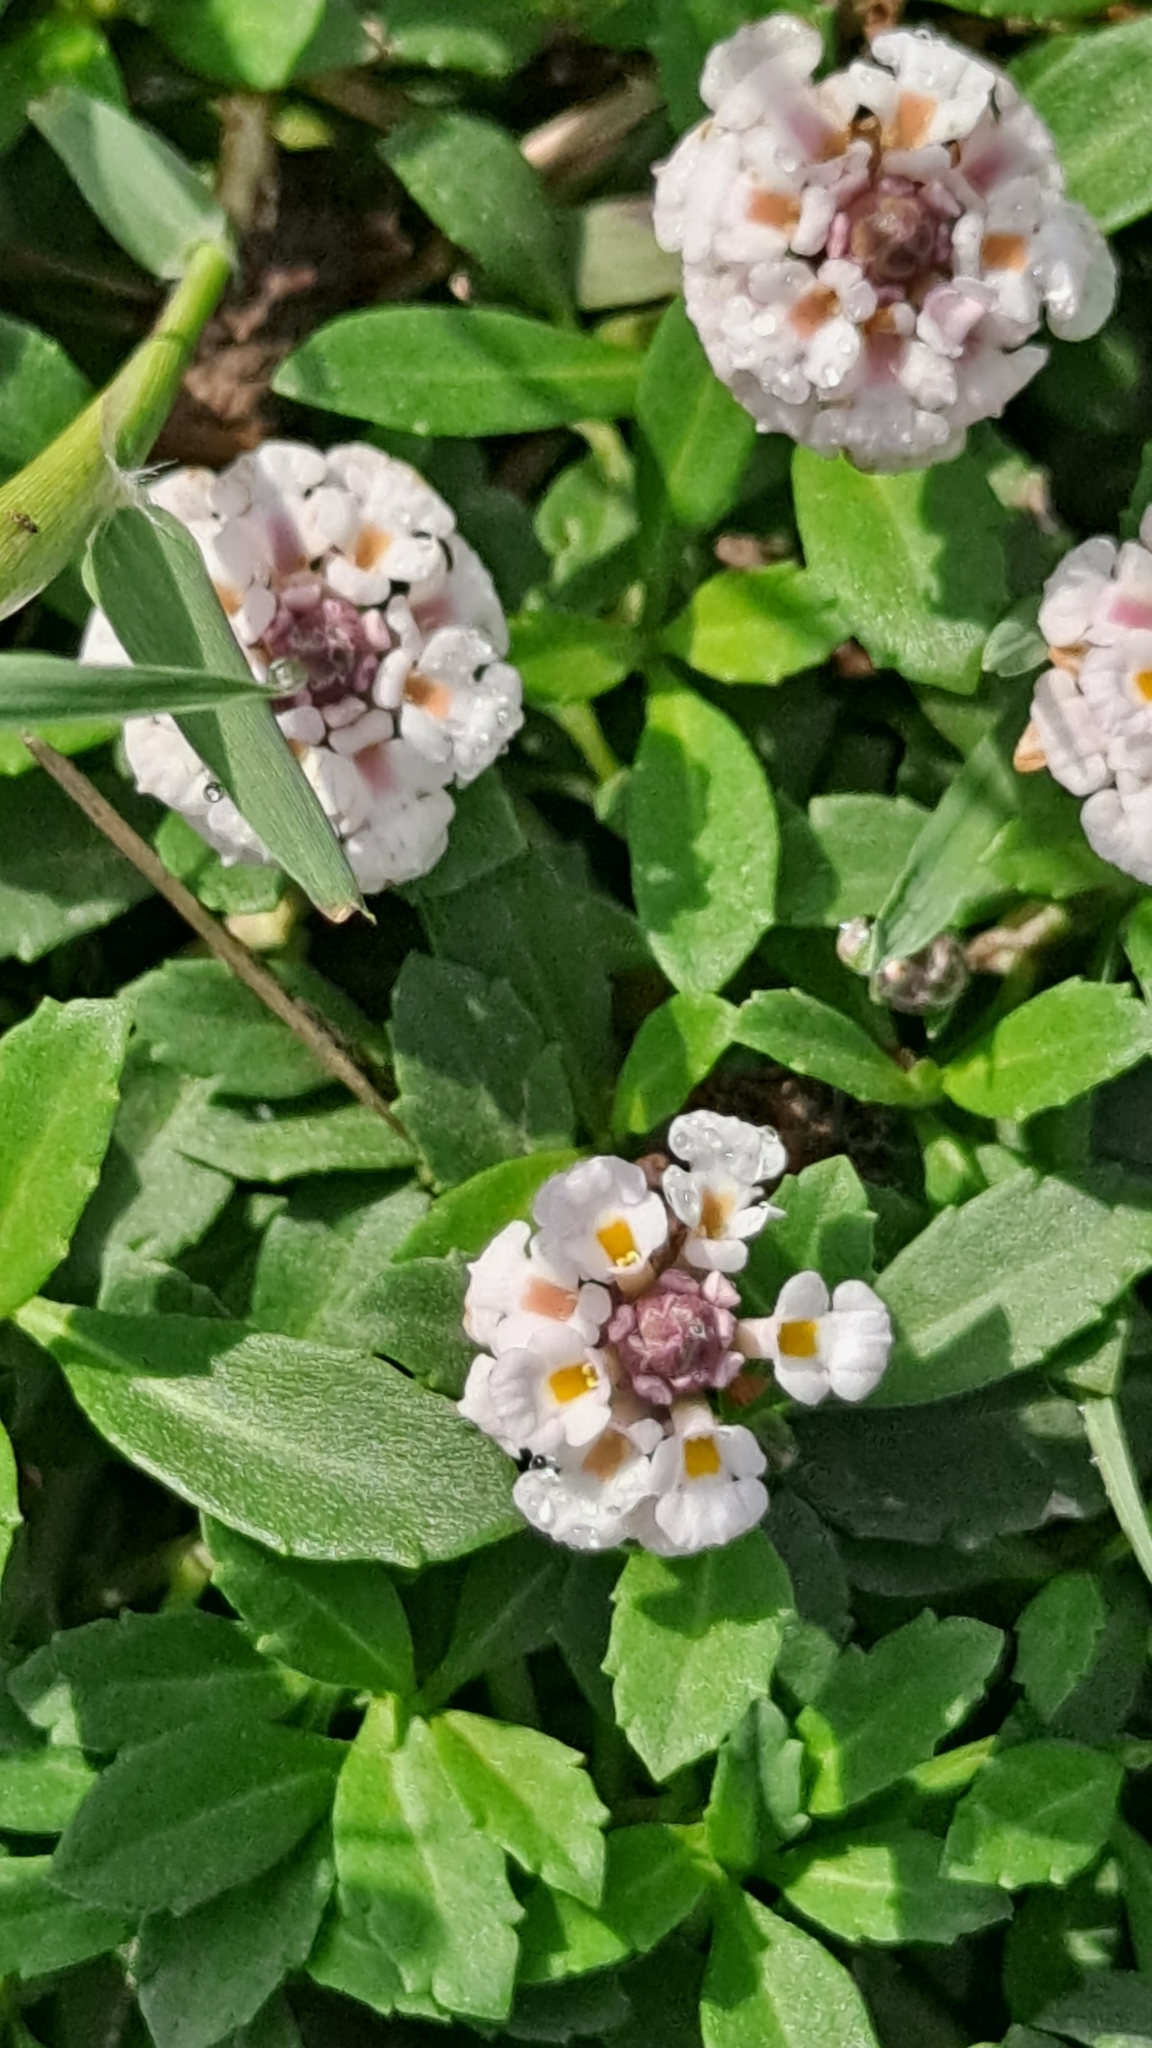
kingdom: Plantae
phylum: Tracheophyta
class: Magnoliopsida
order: Lamiales
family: Verbenaceae
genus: Phyla
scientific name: Phyla nodiflora
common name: Frogfruit
